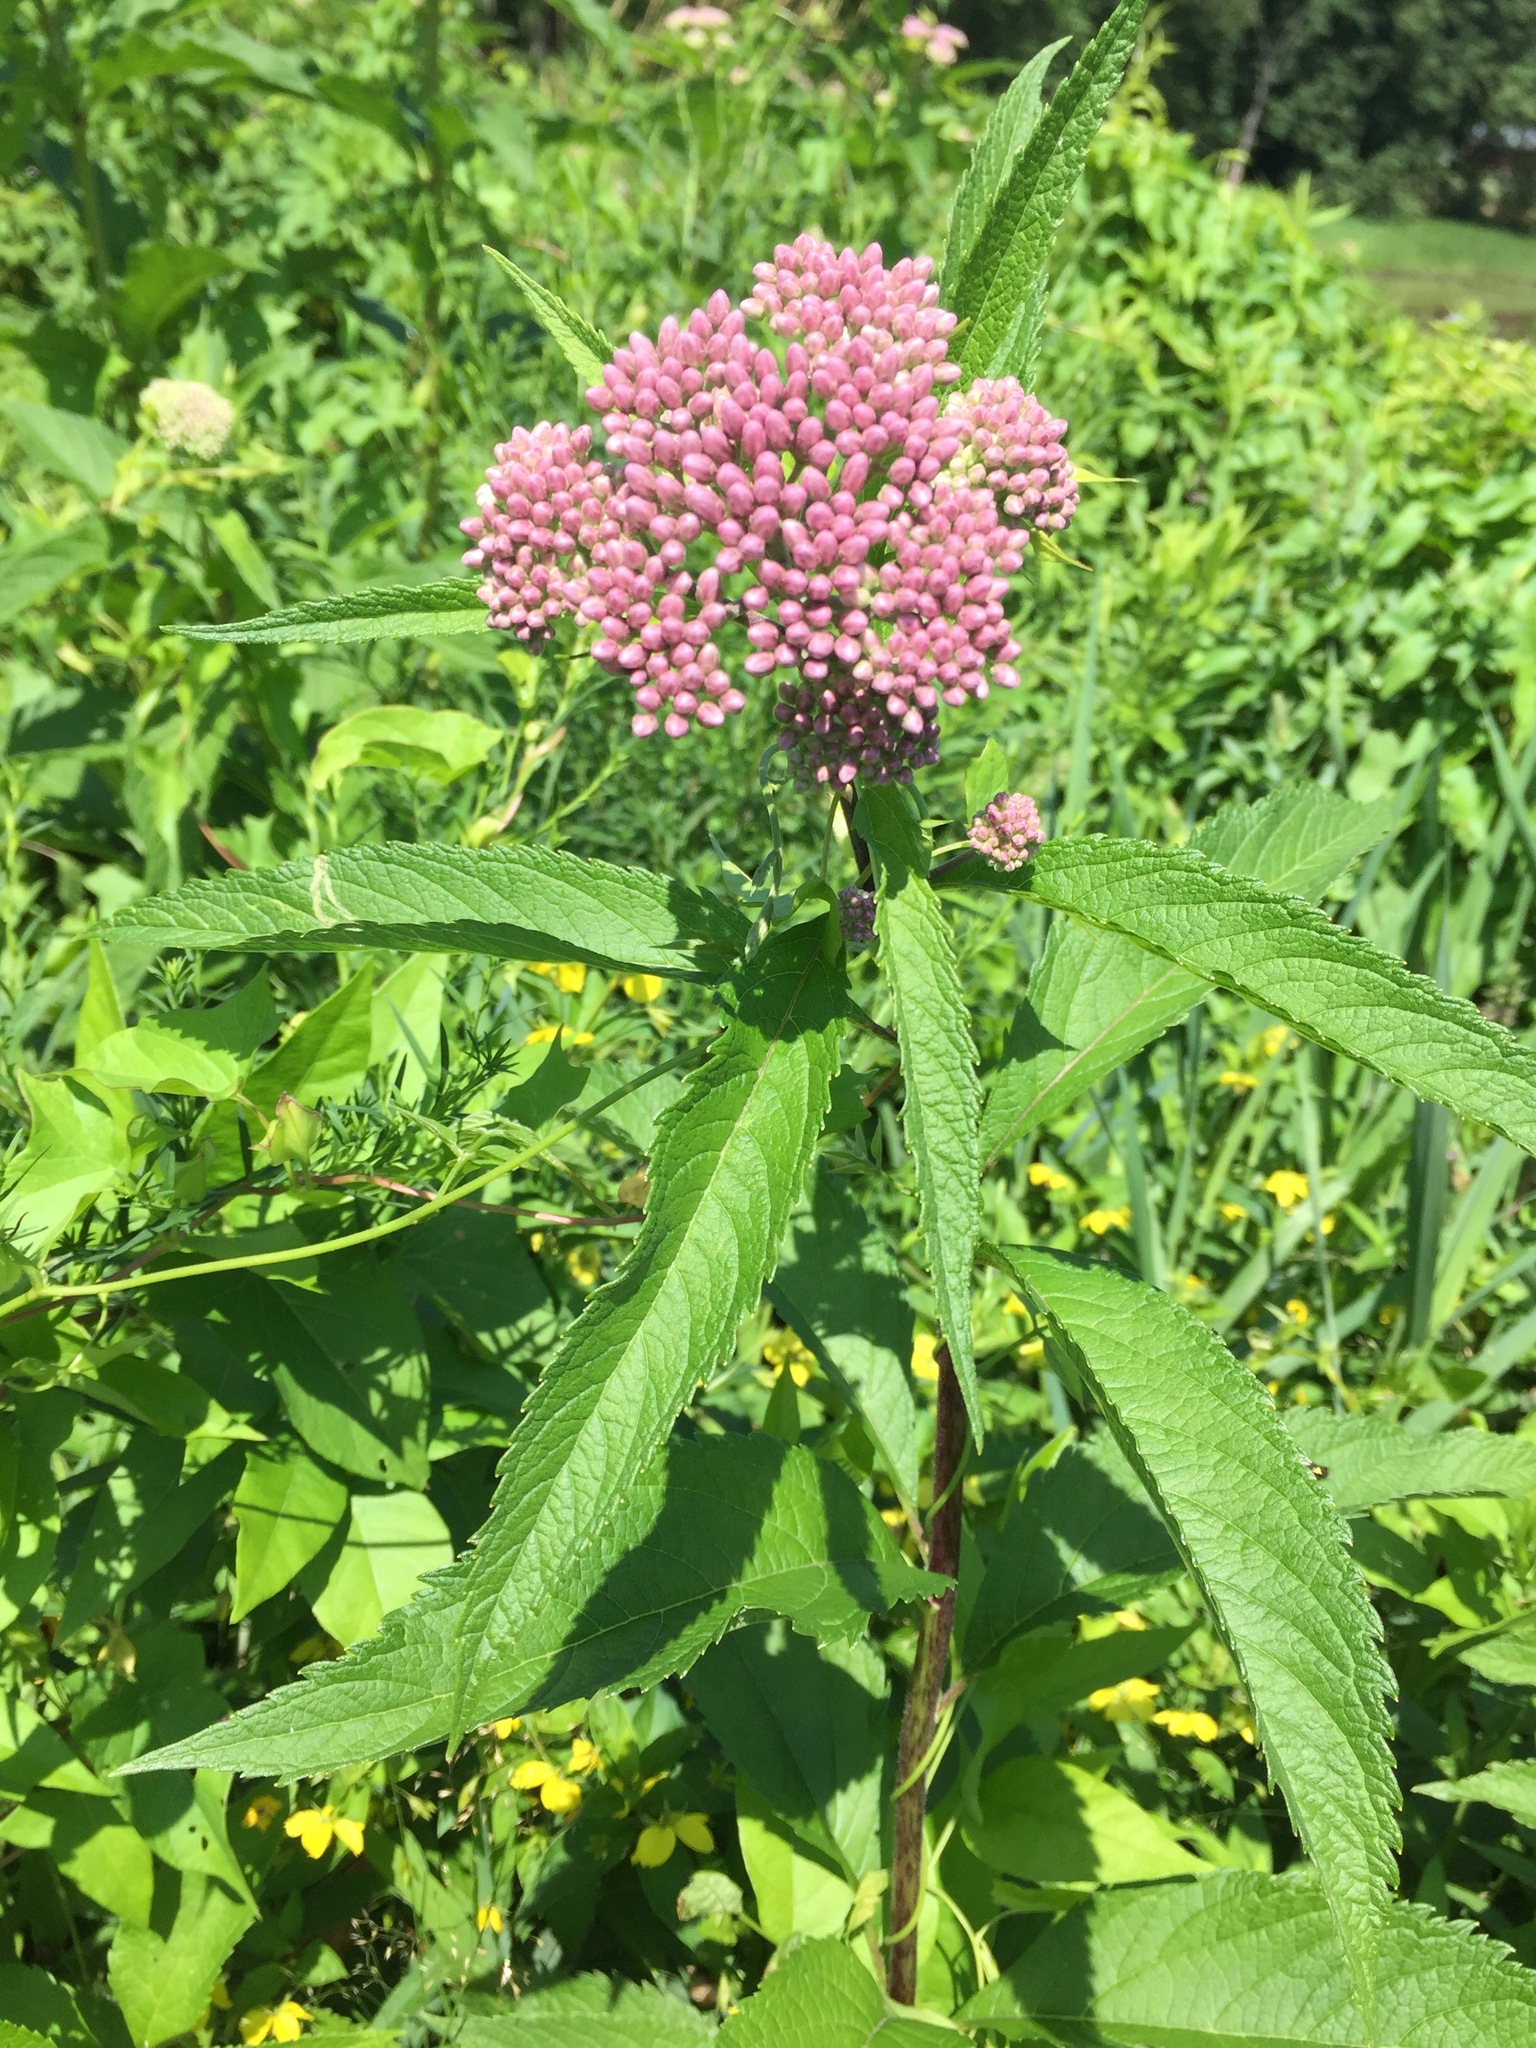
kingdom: Plantae
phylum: Tracheophyta
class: Magnoliopsida
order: Asterales
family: Asteraceae
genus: Eutrochium
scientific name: Eutrochium maculatum
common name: Spotted joe pye weed
